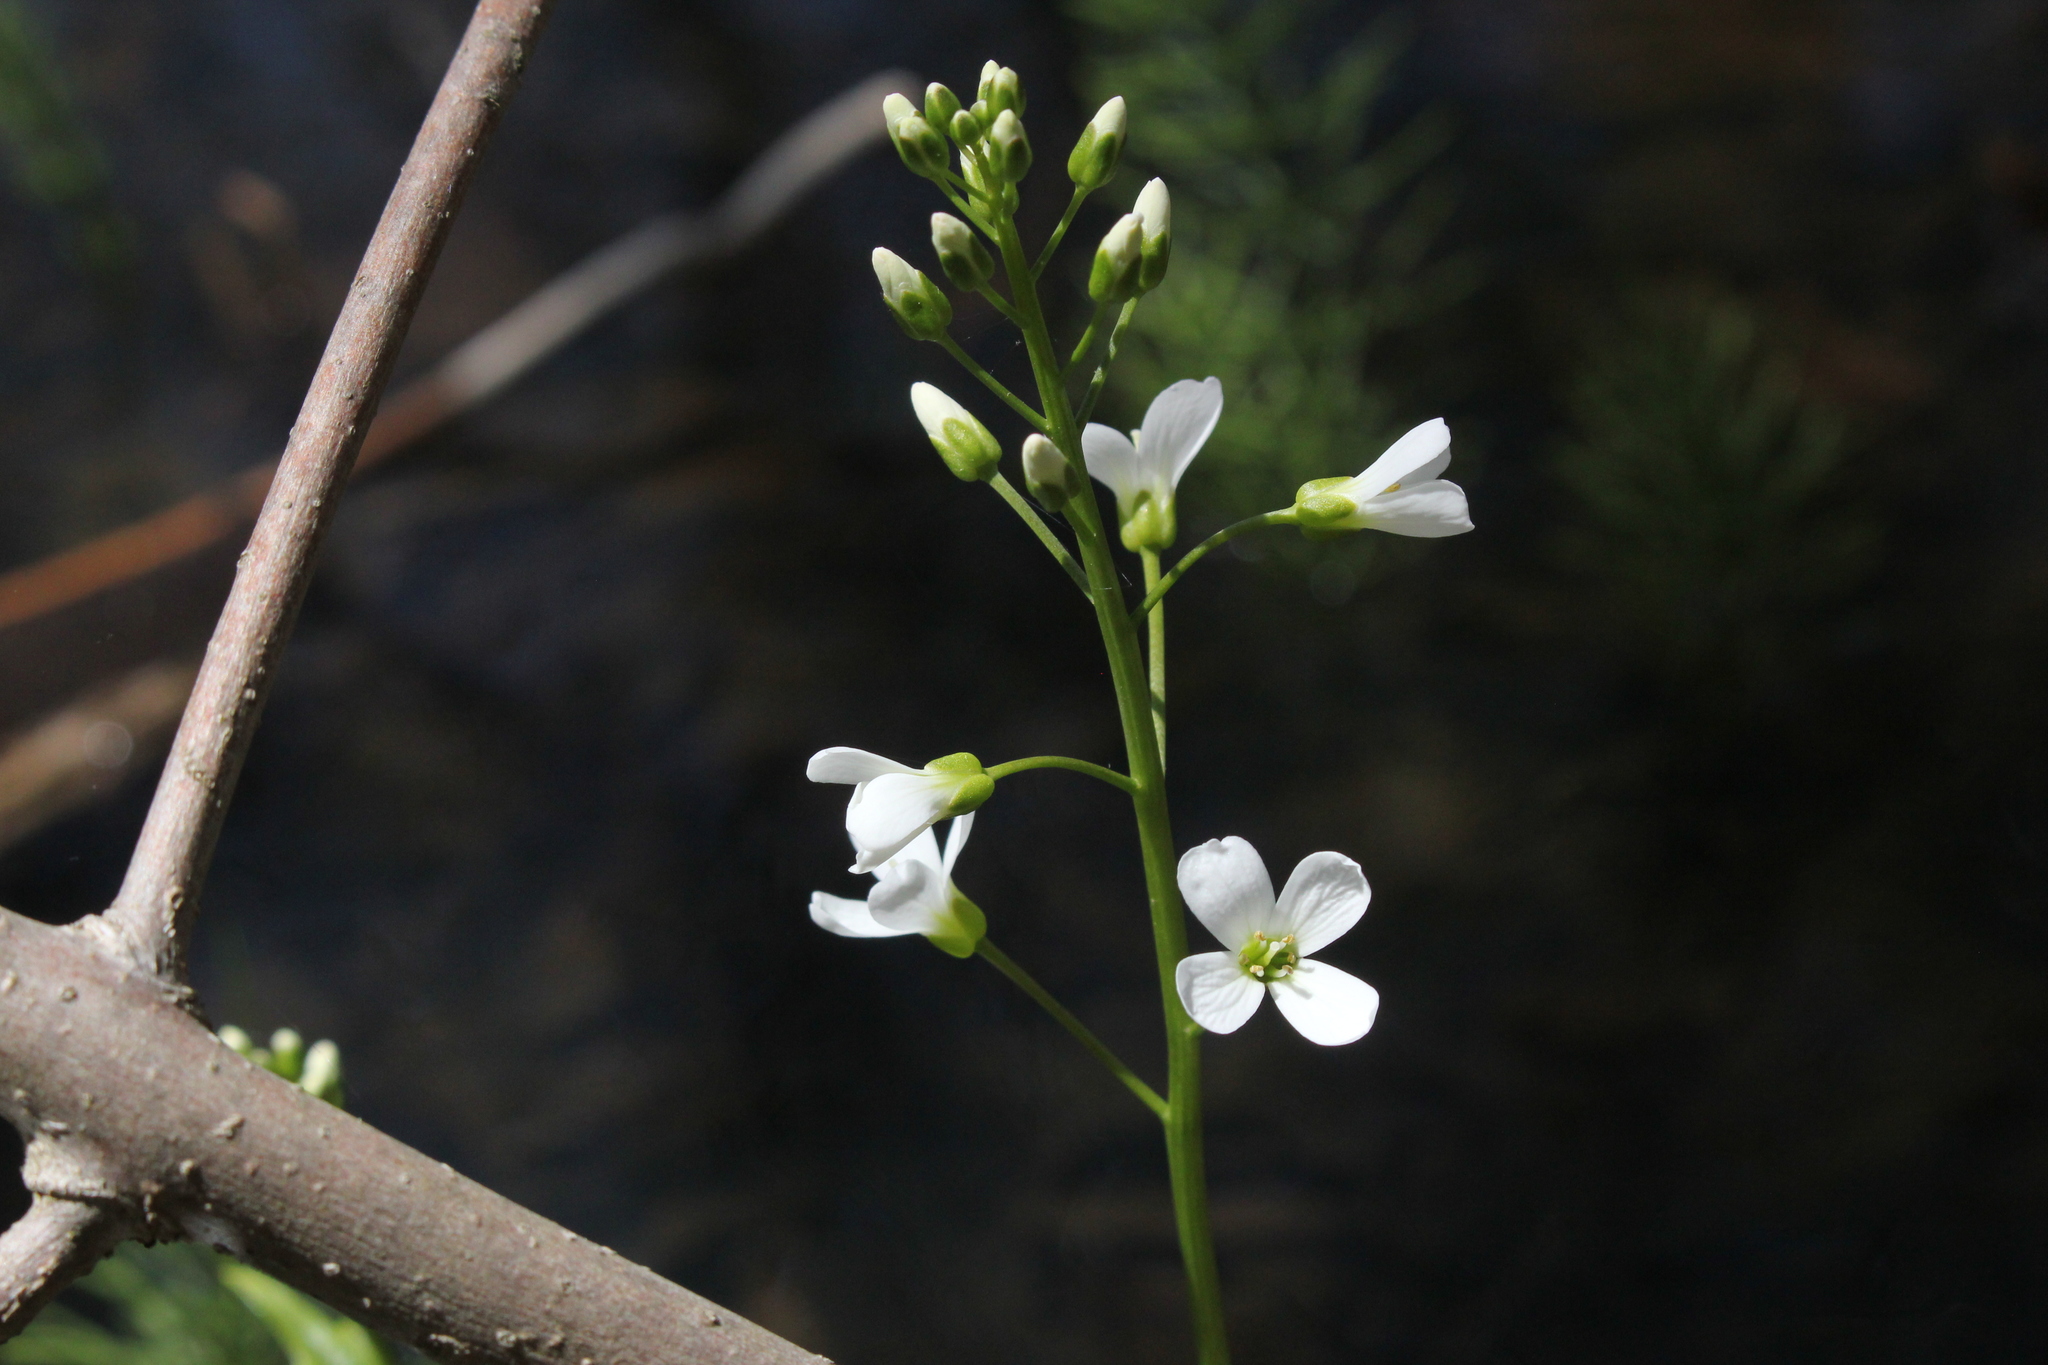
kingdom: Plantae
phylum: Tracheophyta
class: Magnoliopsida
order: Brassicales
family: Brassicaceae
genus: Cardamine
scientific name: Cardamine bulbosa
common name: Spring cress
